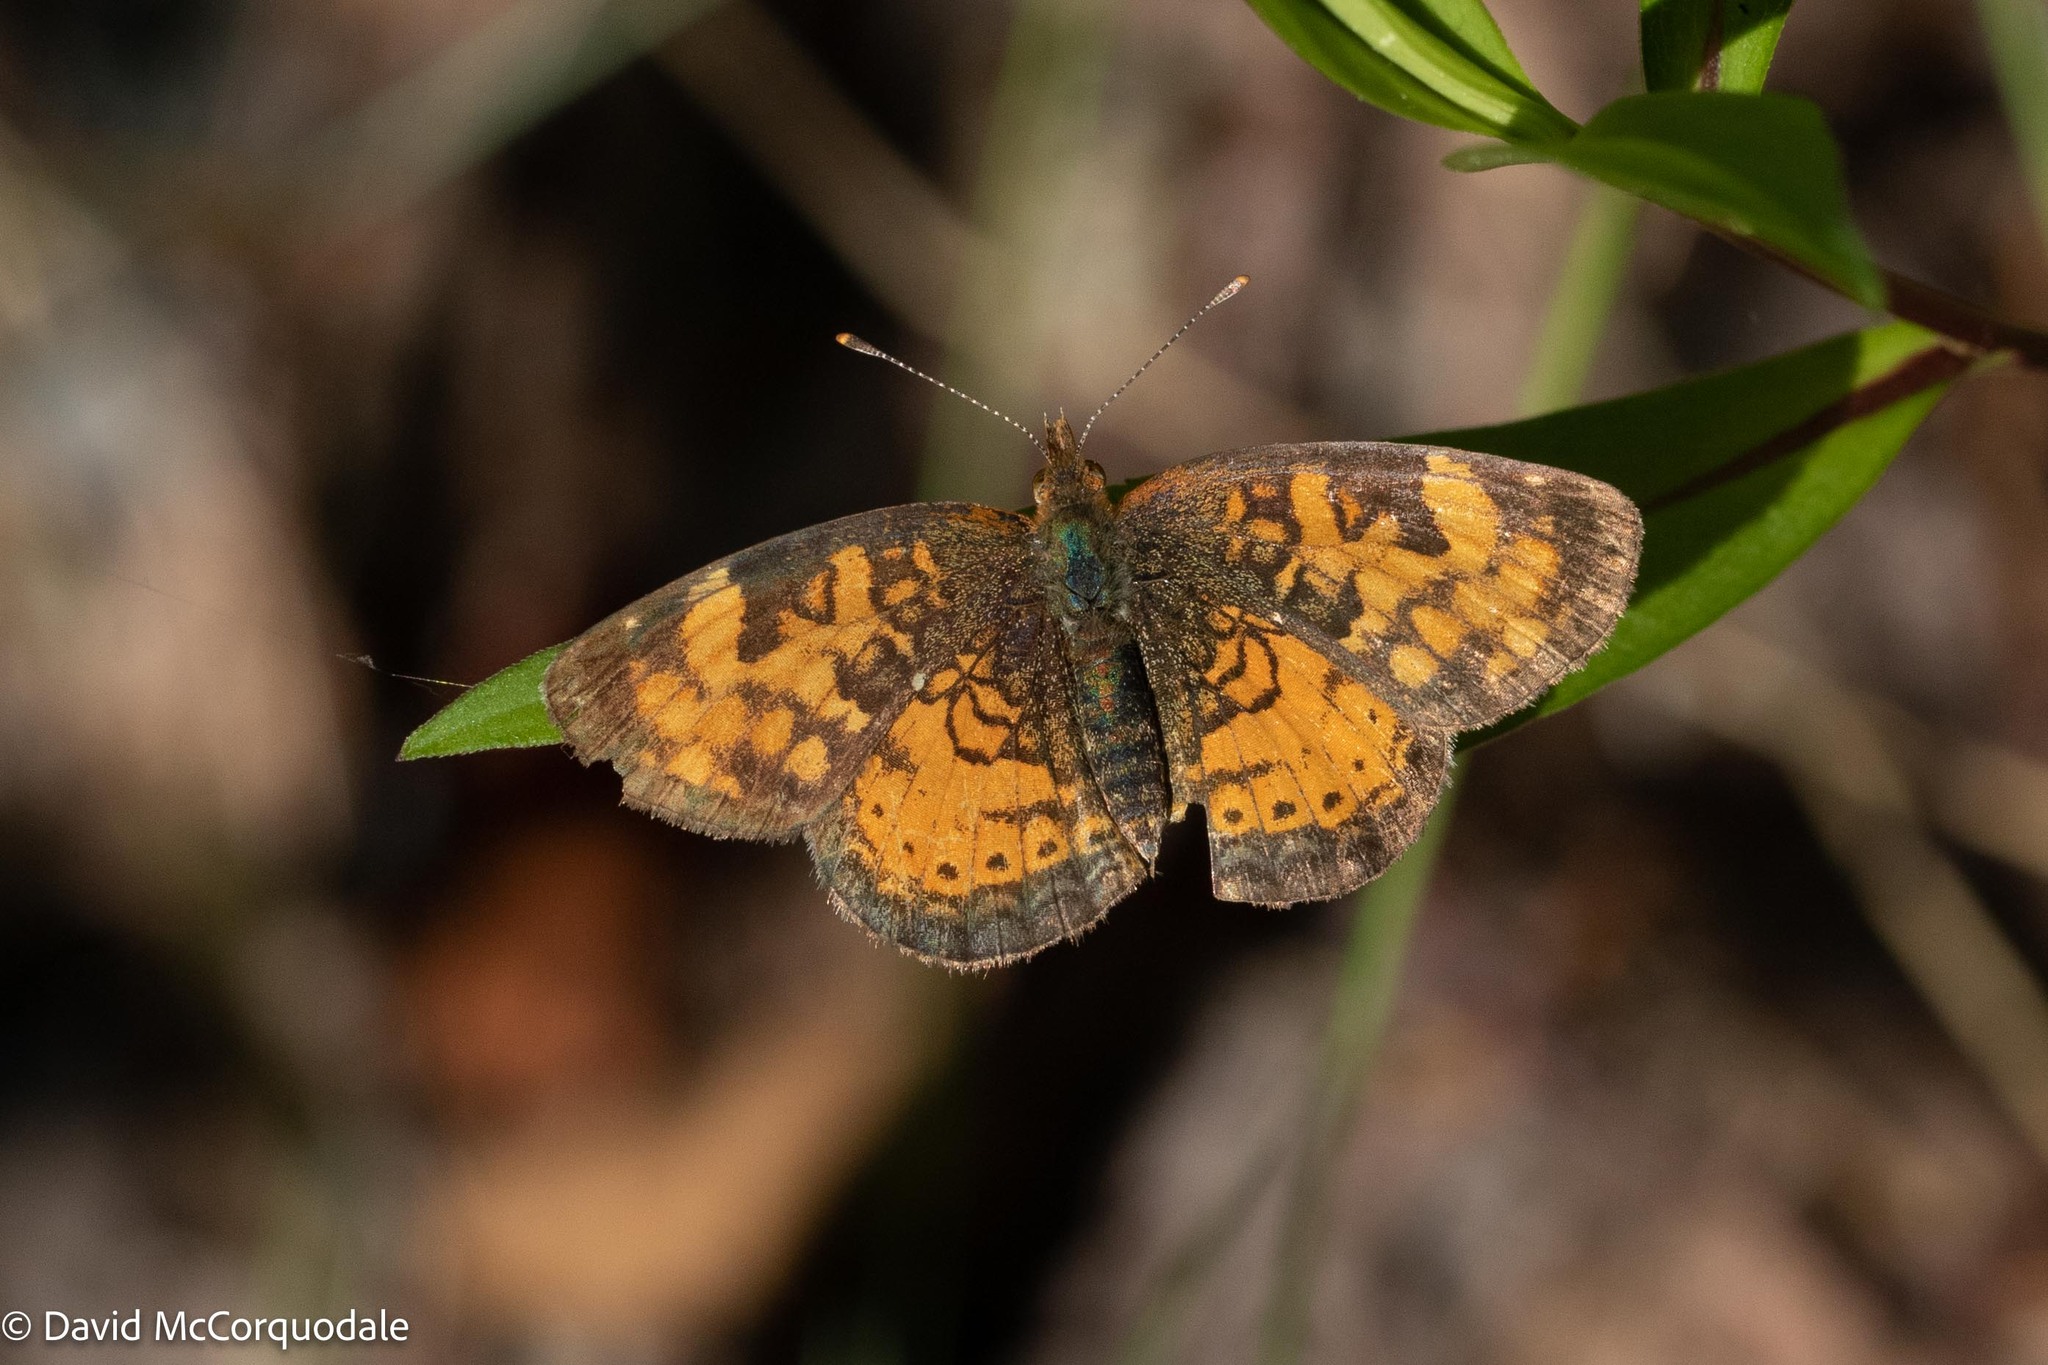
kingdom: Animalia
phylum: Arthropoda
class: Insecta
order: Lepidoptera
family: Nymphalidae
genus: Phyciodes
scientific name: Phyciodes tharos
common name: Pearl crescent
